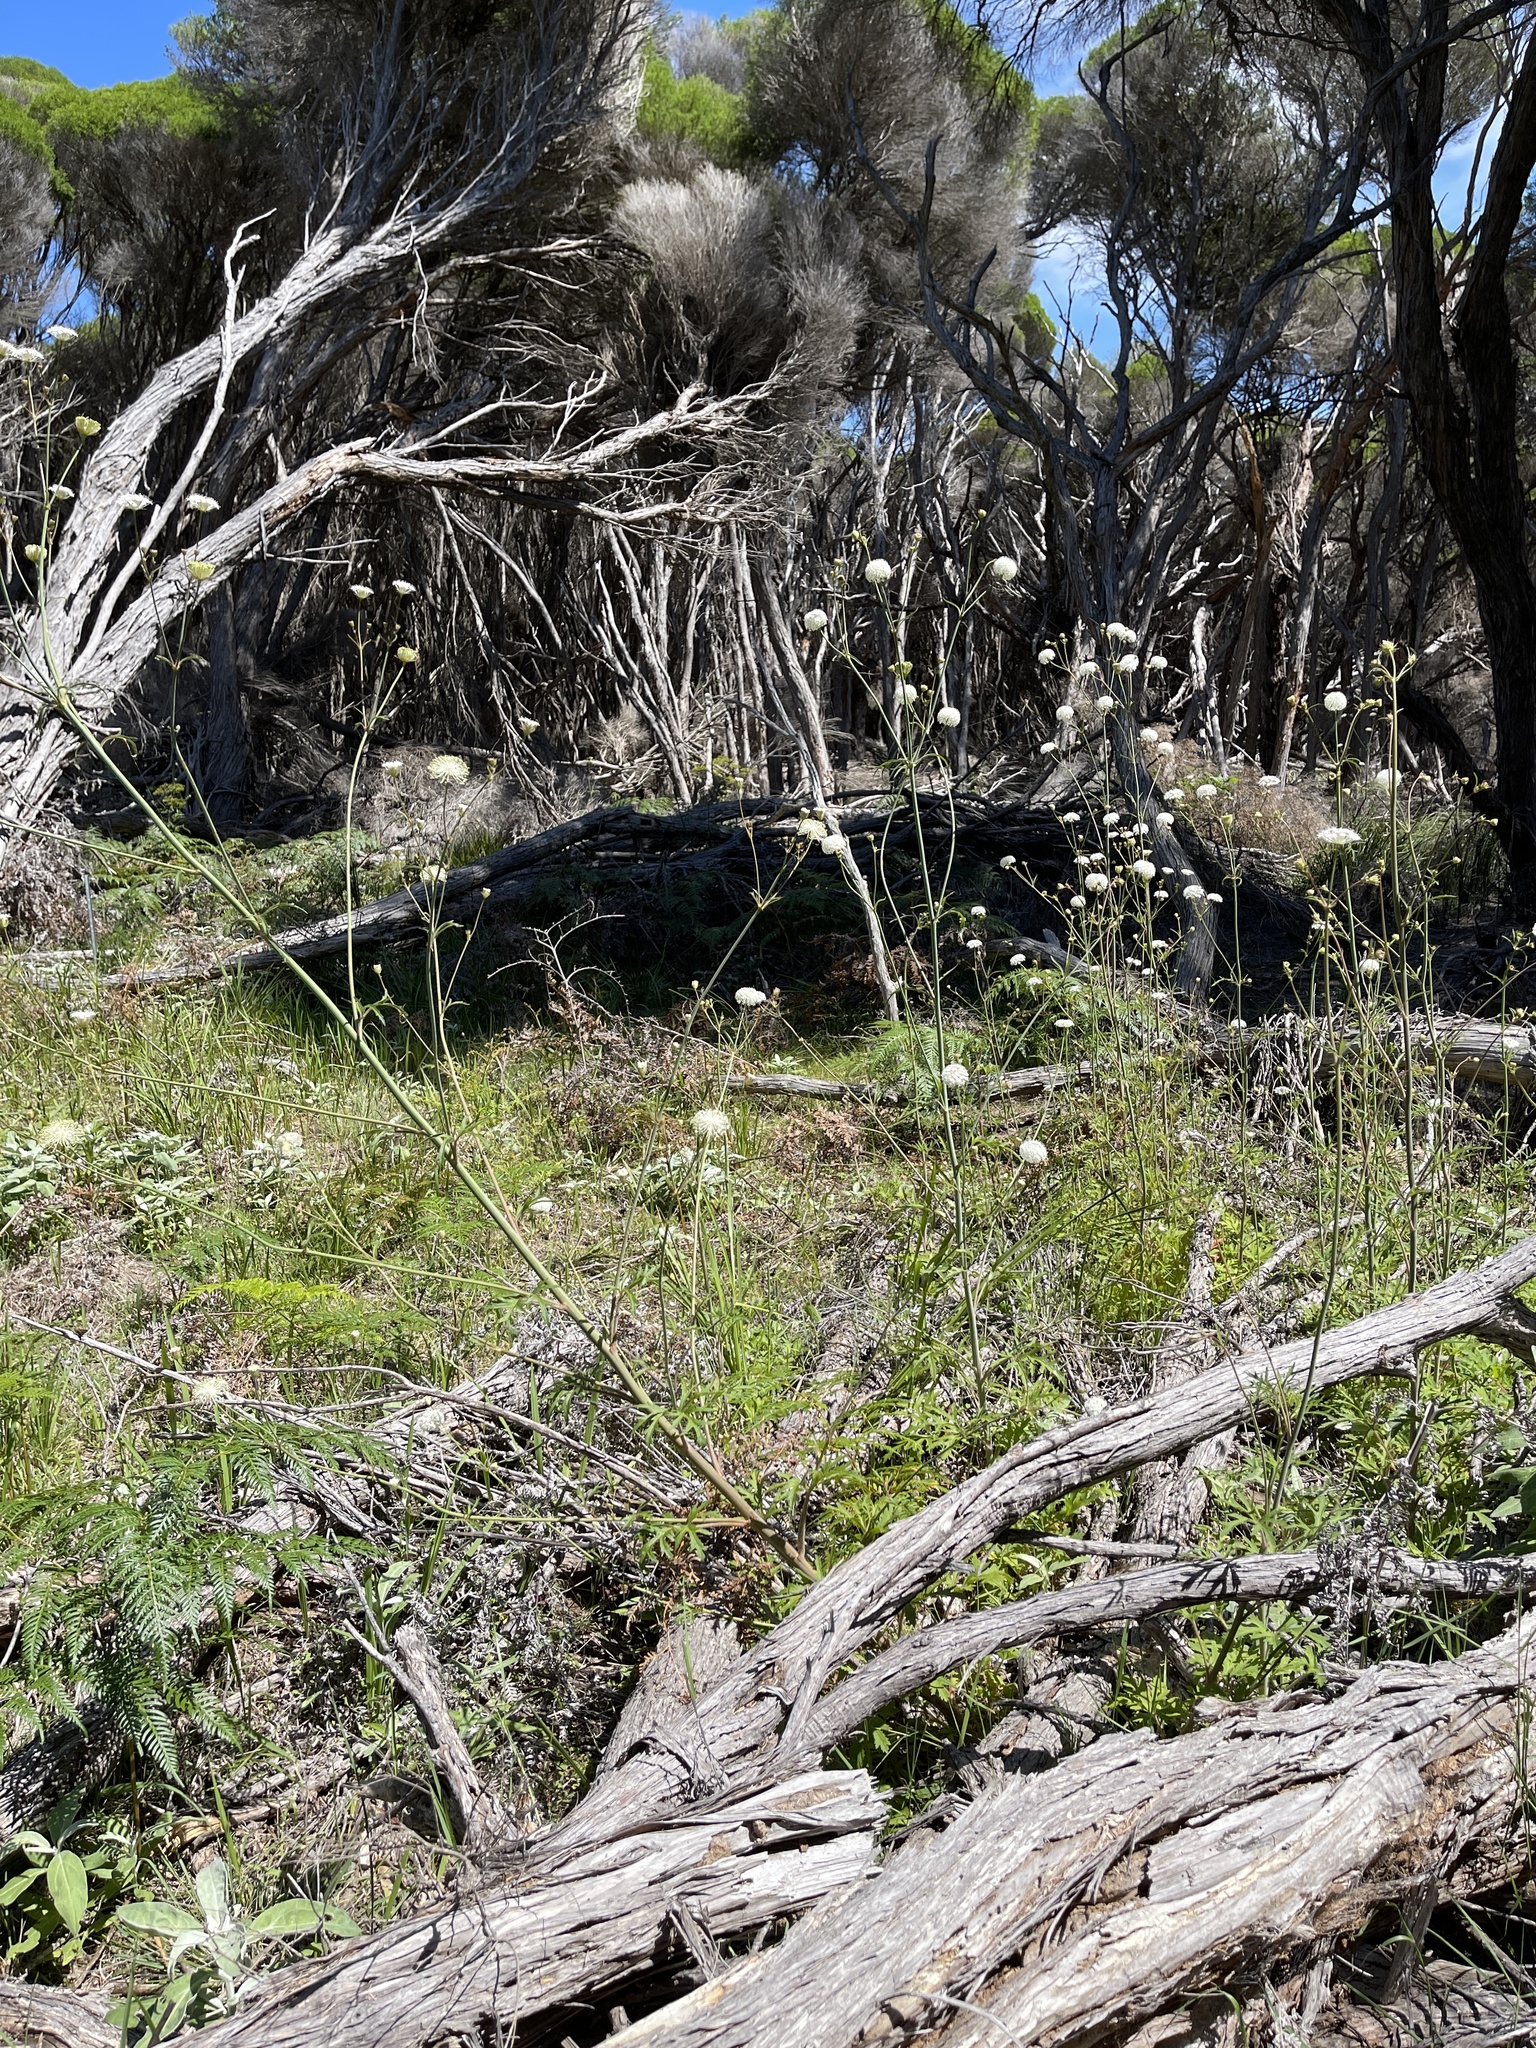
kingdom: Plantae
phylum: Tracheophyta
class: Magnoliopsida
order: Apiales
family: Araliaceae
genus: Trachymene
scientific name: Trachymene composita
